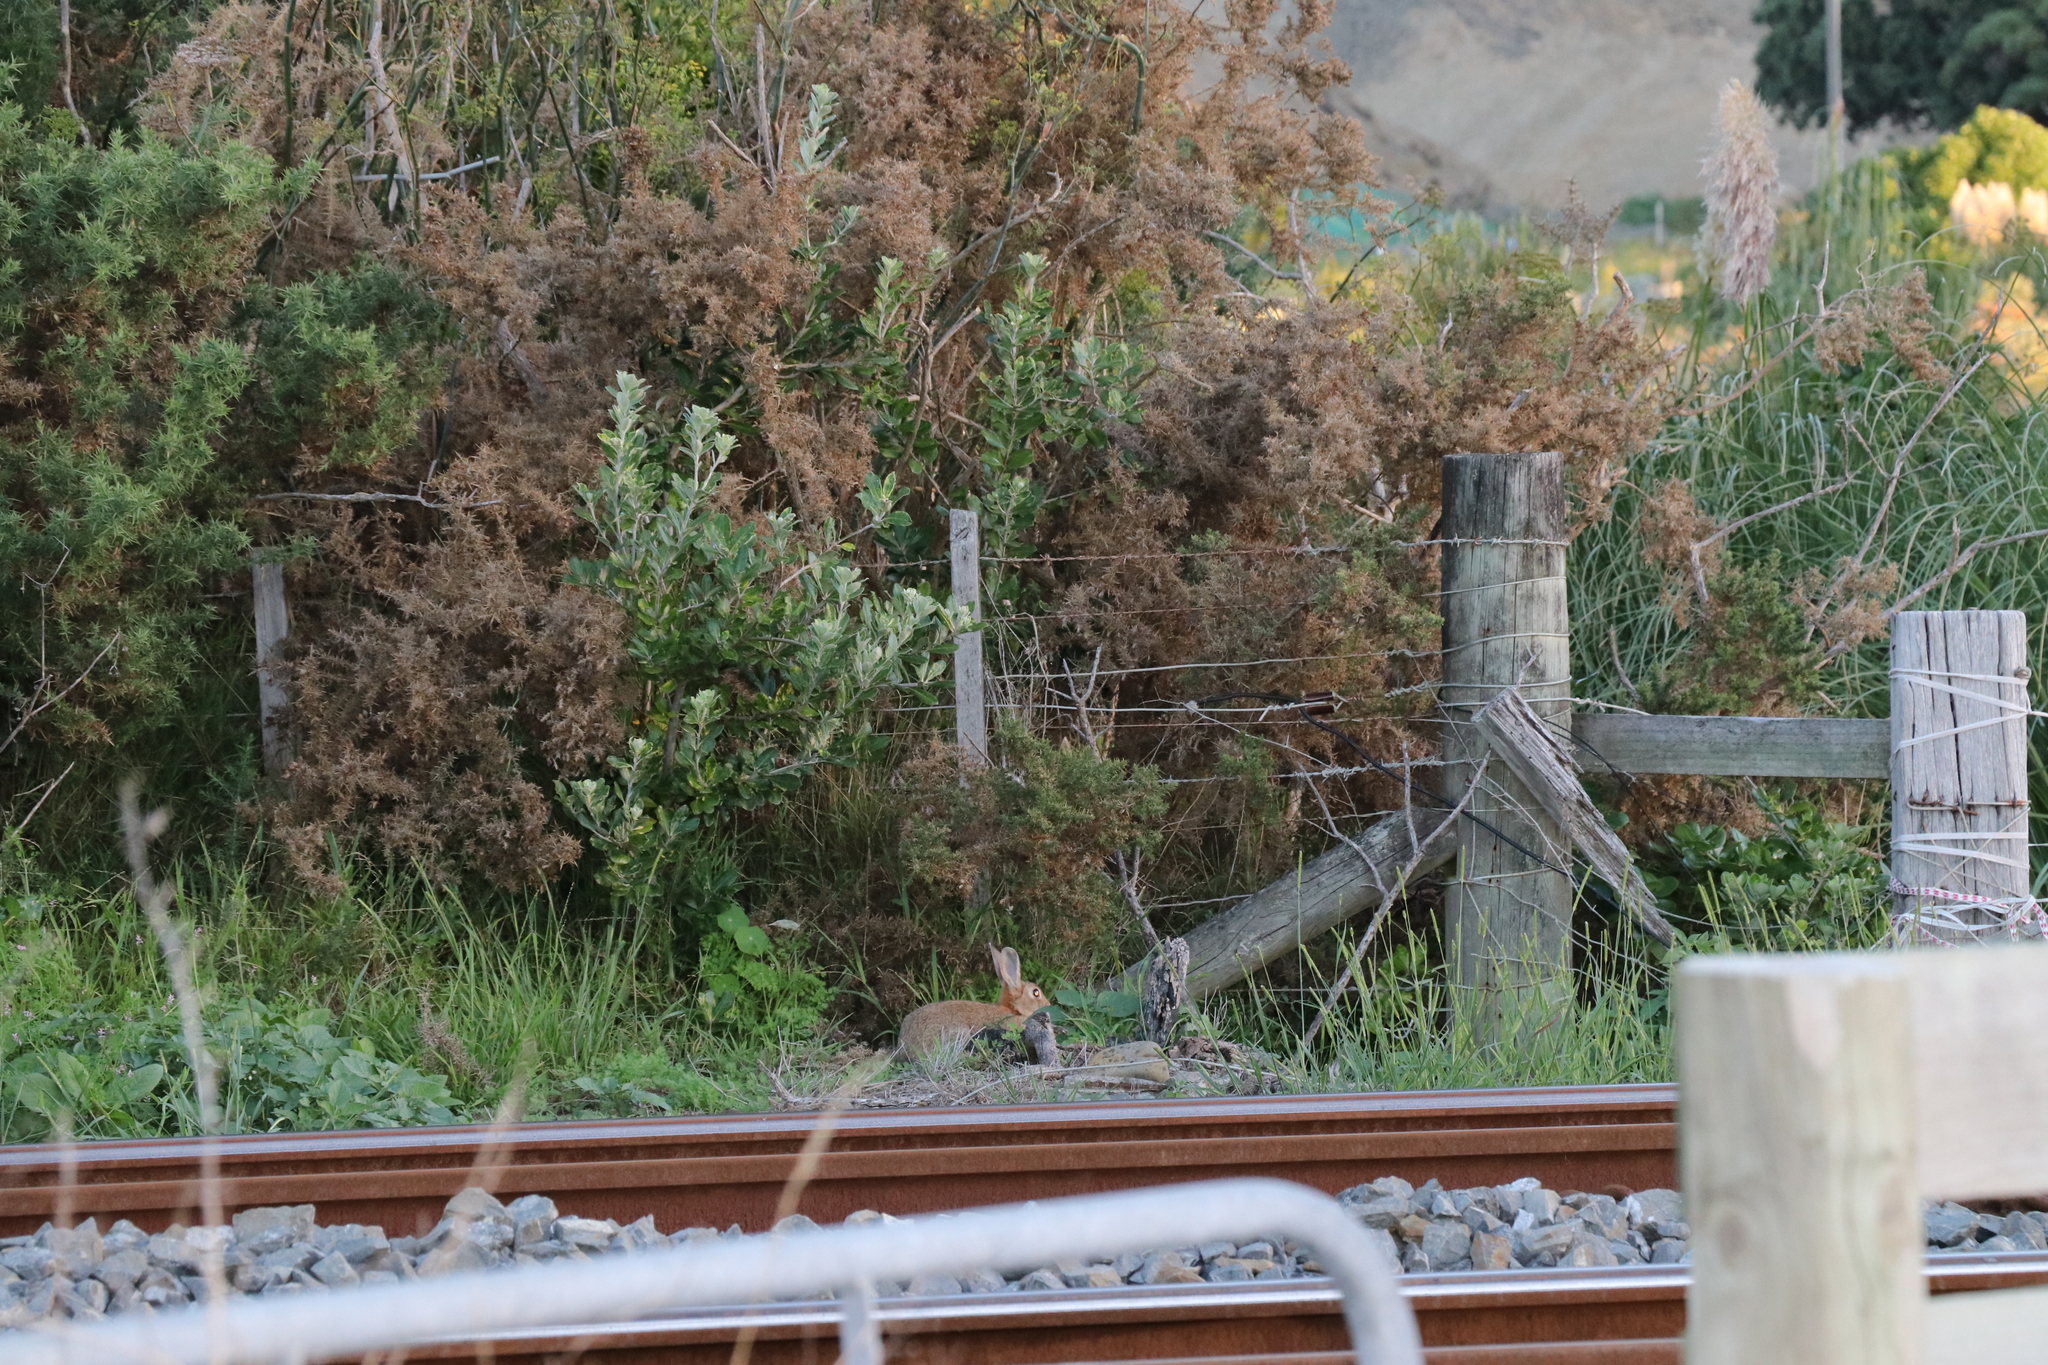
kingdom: Animalia
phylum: Chordata
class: Mammalia
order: Lagomorpha
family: Leporidae
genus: Oryctolagus
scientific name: Oryctolagus cuniculus
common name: European rabbit
